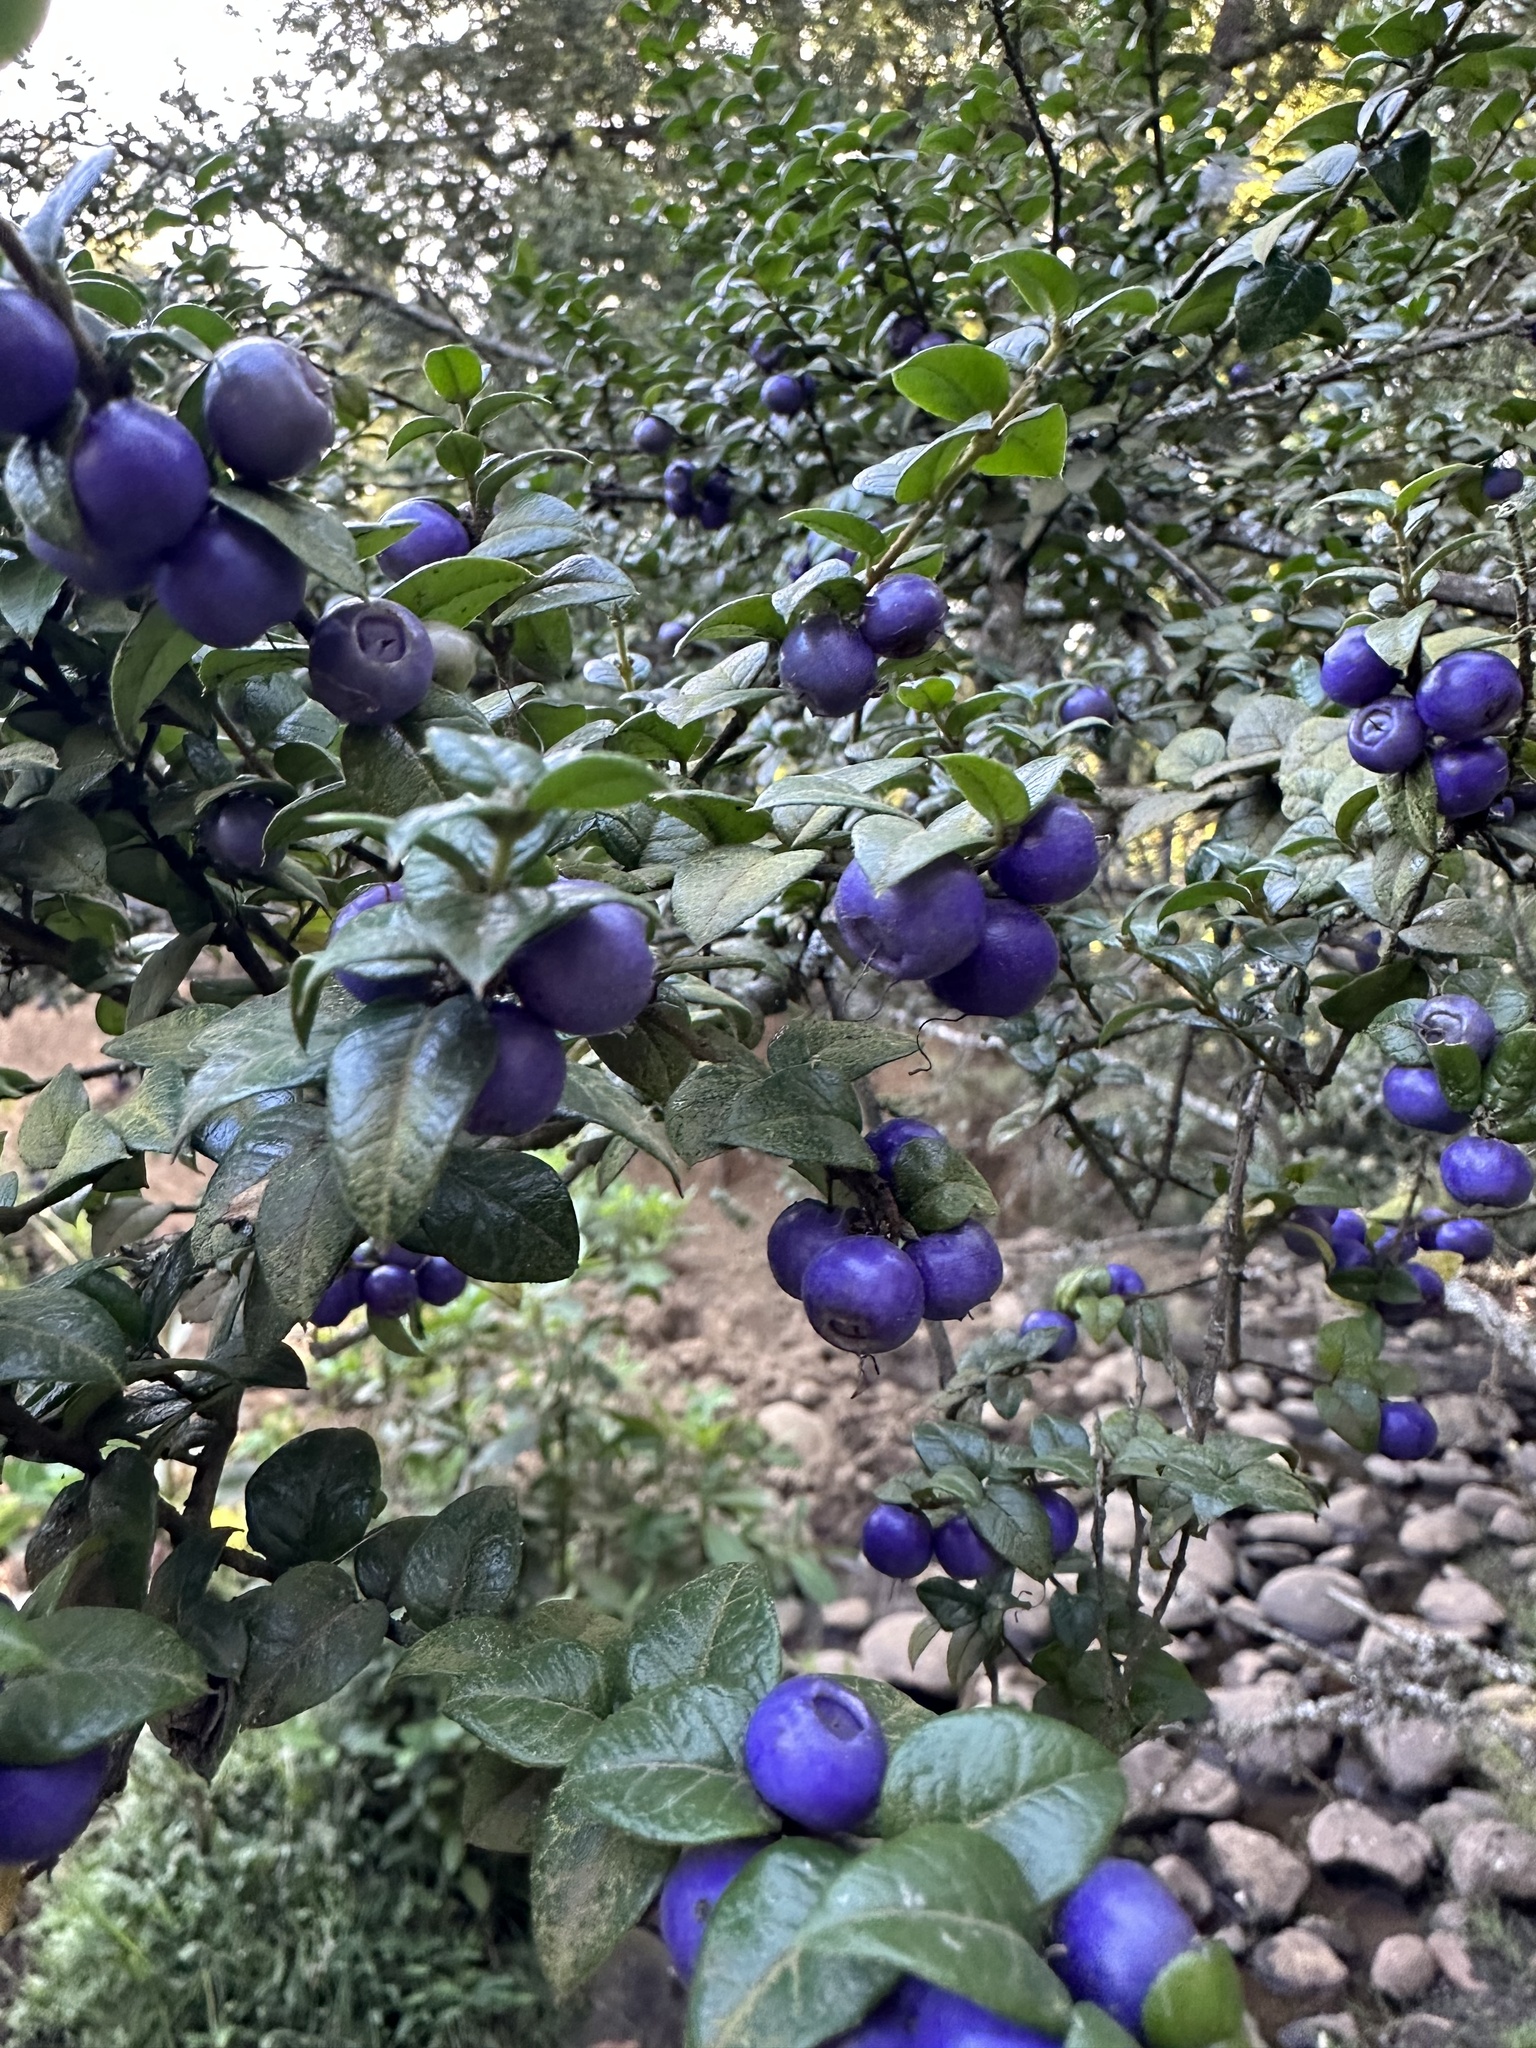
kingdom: Plantae
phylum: Tracheophyta
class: Magnoliopsida
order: Lamiales
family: Verbenaceae
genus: Rhaphithamnus
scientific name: Rhaphithamnus spinosus
